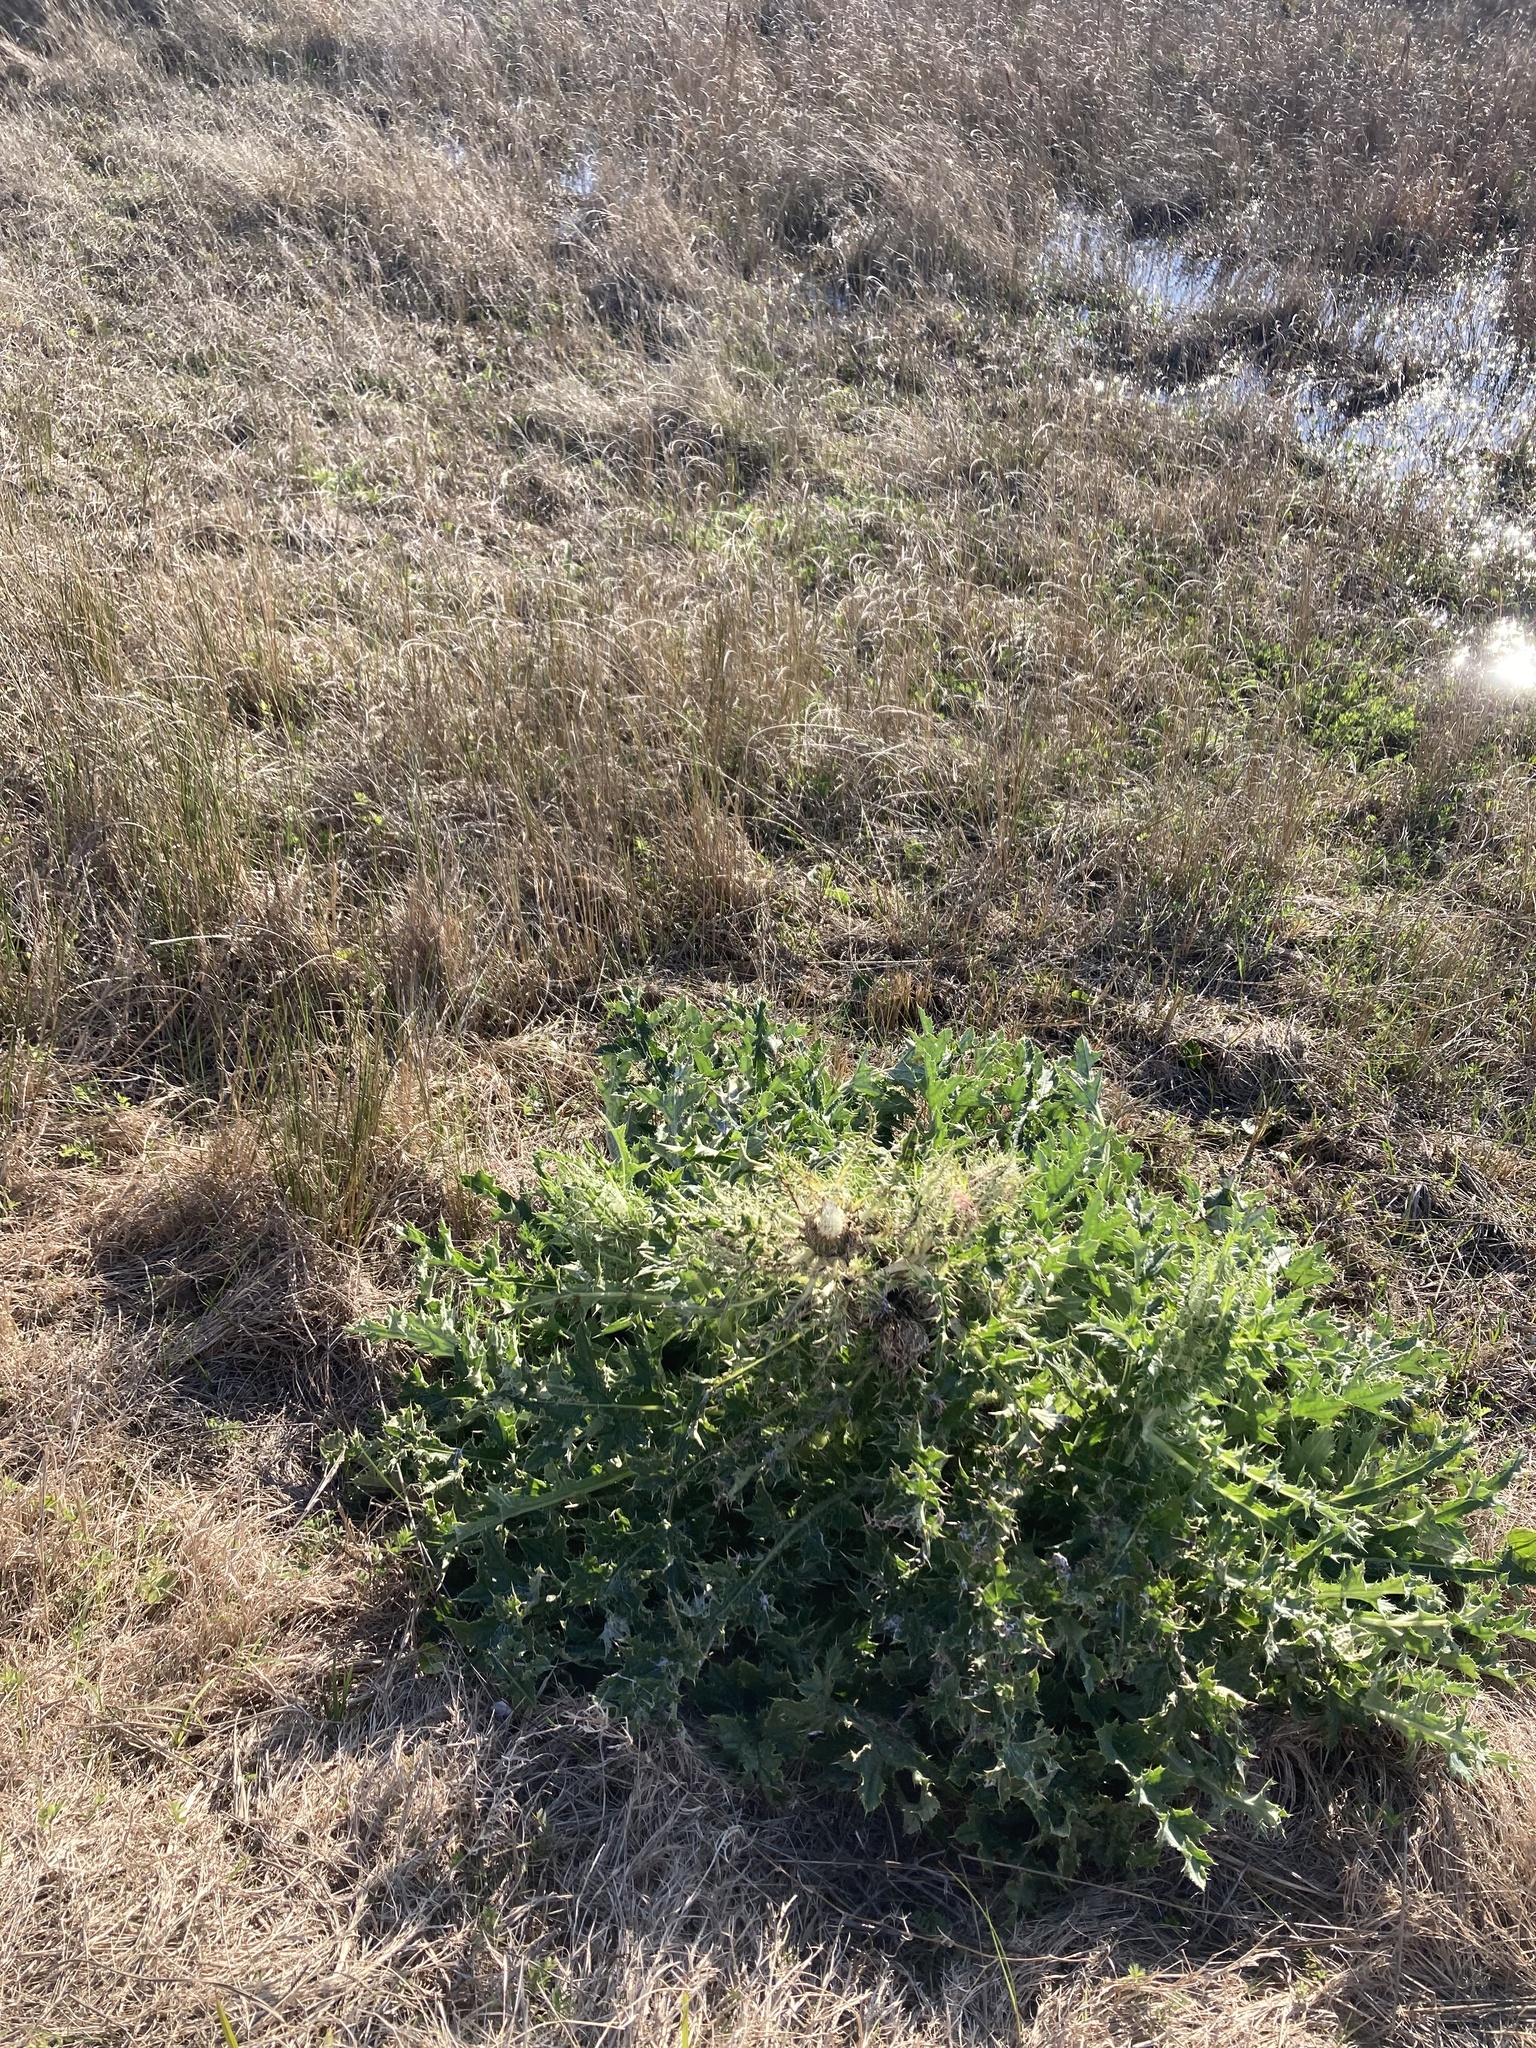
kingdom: Plantae
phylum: Tracheophyta
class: Magnoliopsida
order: Asterales
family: Asteraceae
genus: Cirsium
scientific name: Cirsium horridulum
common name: Bristly thistle
